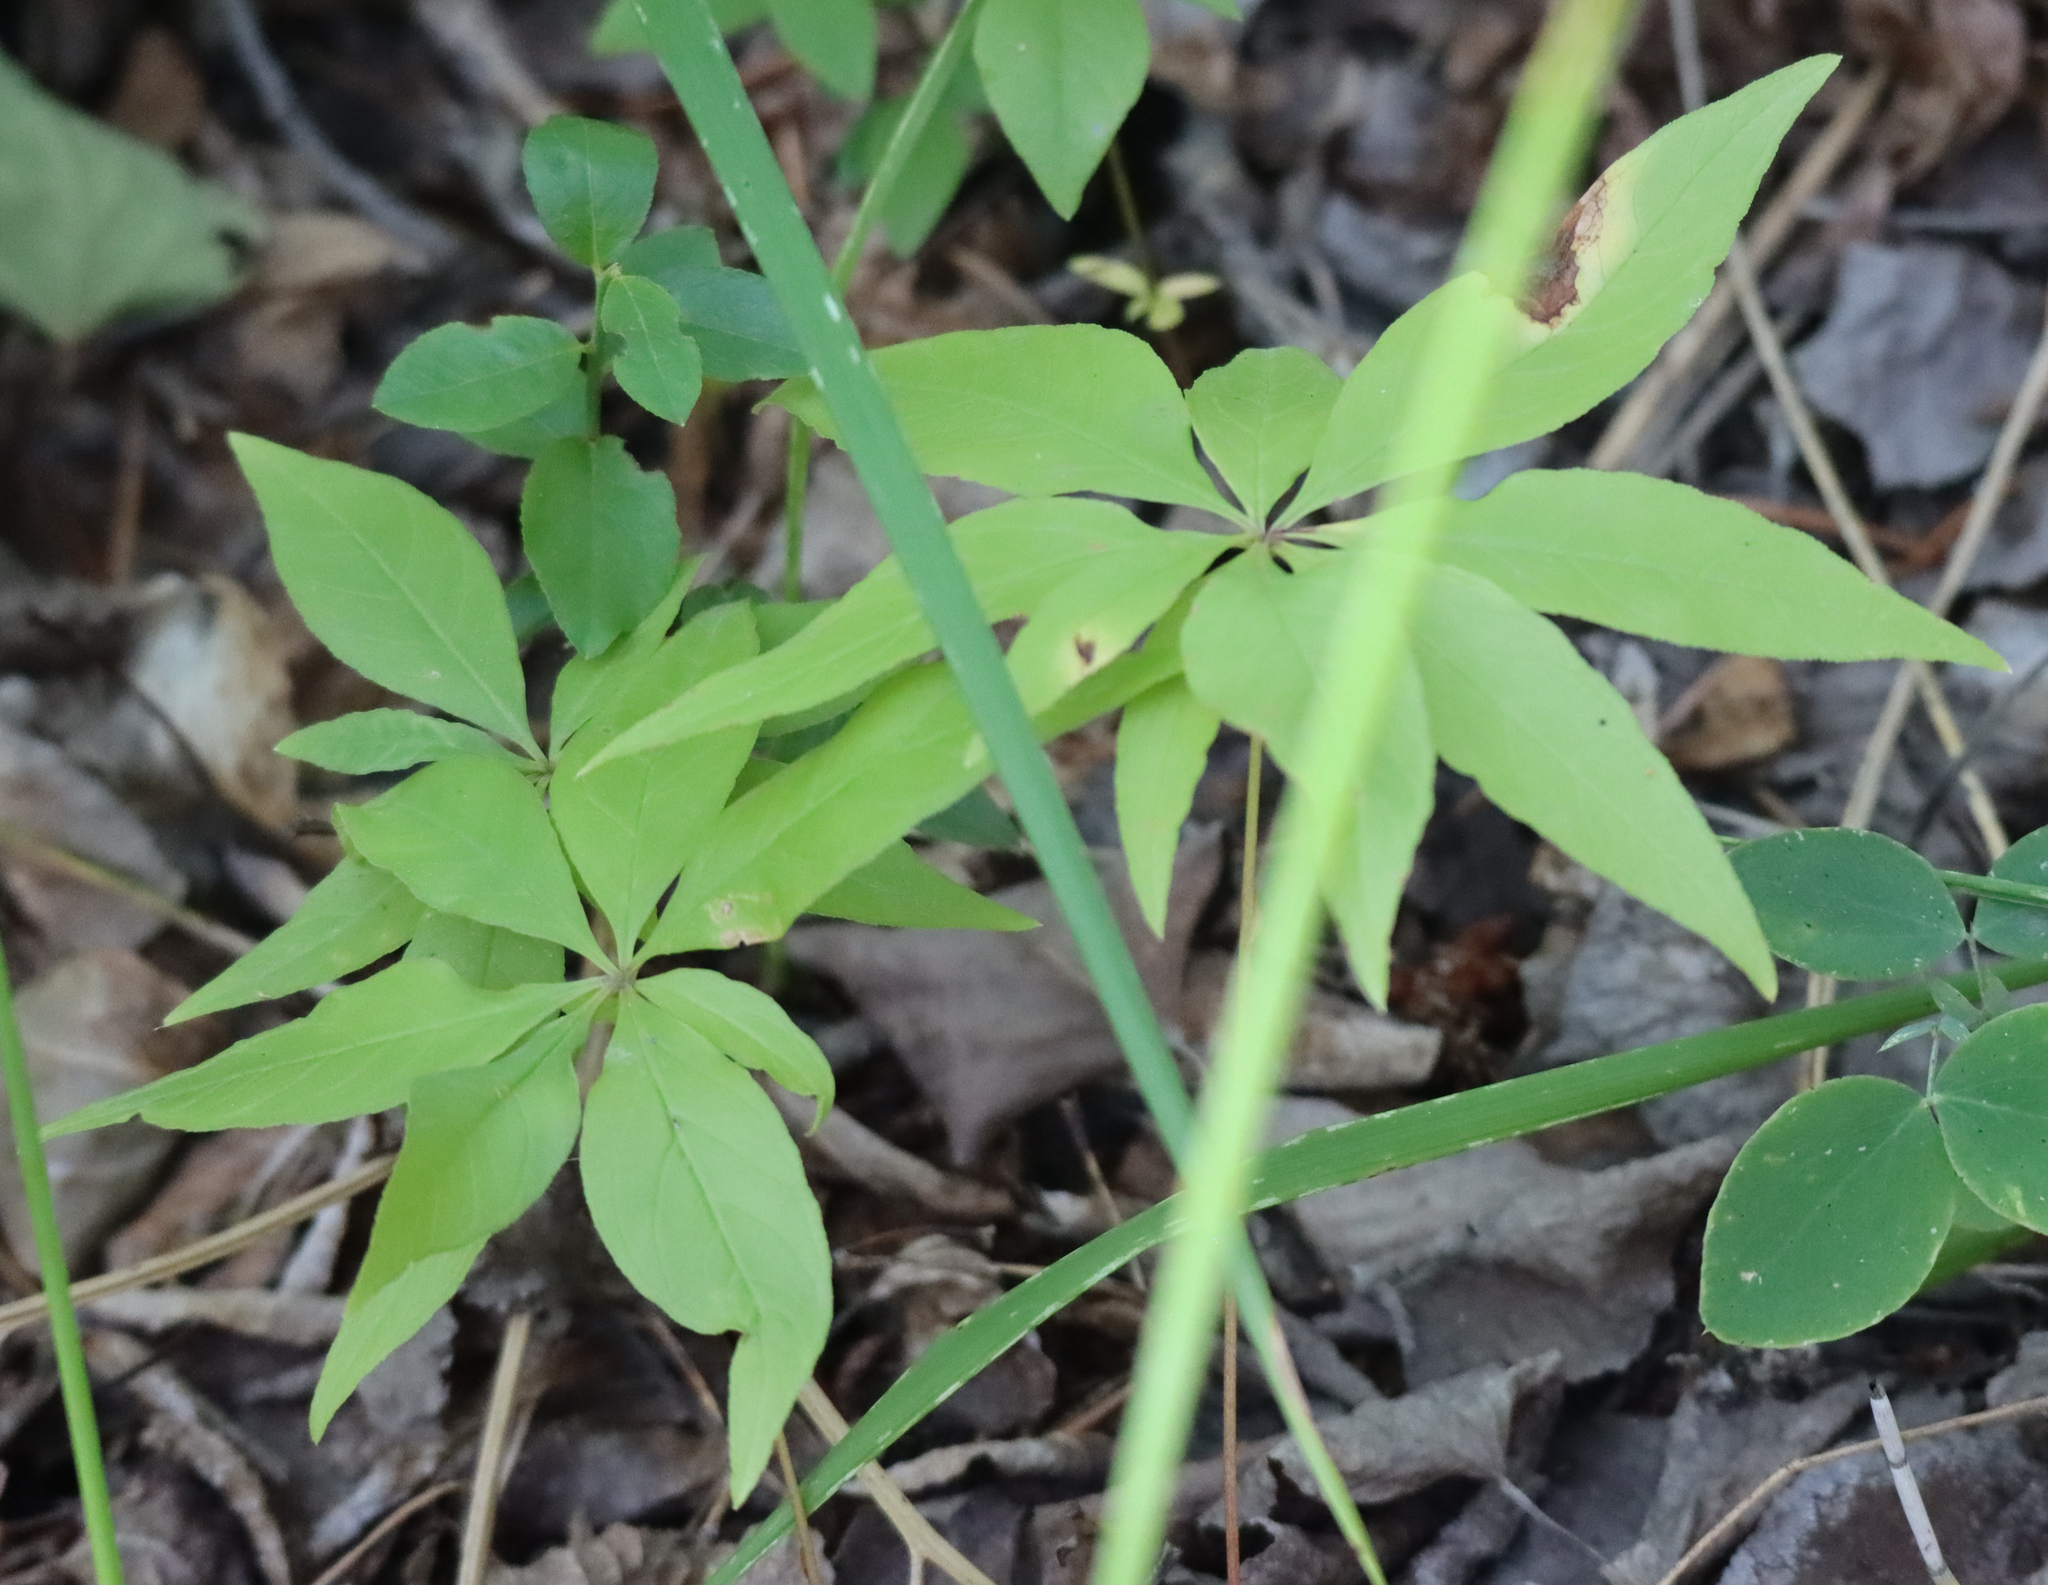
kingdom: Plantae
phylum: Tracheophyta
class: Magnoliopsida
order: Ericales
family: Primulaceae
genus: Lysimachia
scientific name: Lysimachia borealis
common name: American starflower
